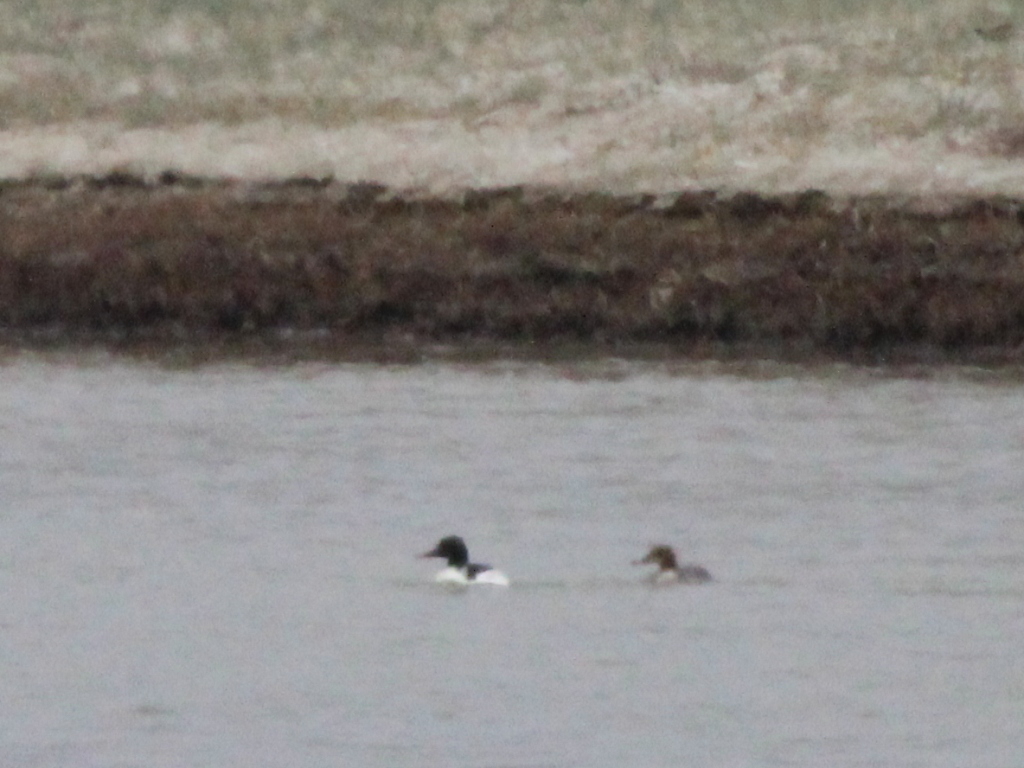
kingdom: Animalia
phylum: Chordata
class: Aves
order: Anseriformes
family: Anatidae
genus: Mergus
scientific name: Mergus merganser
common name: Common merganser
